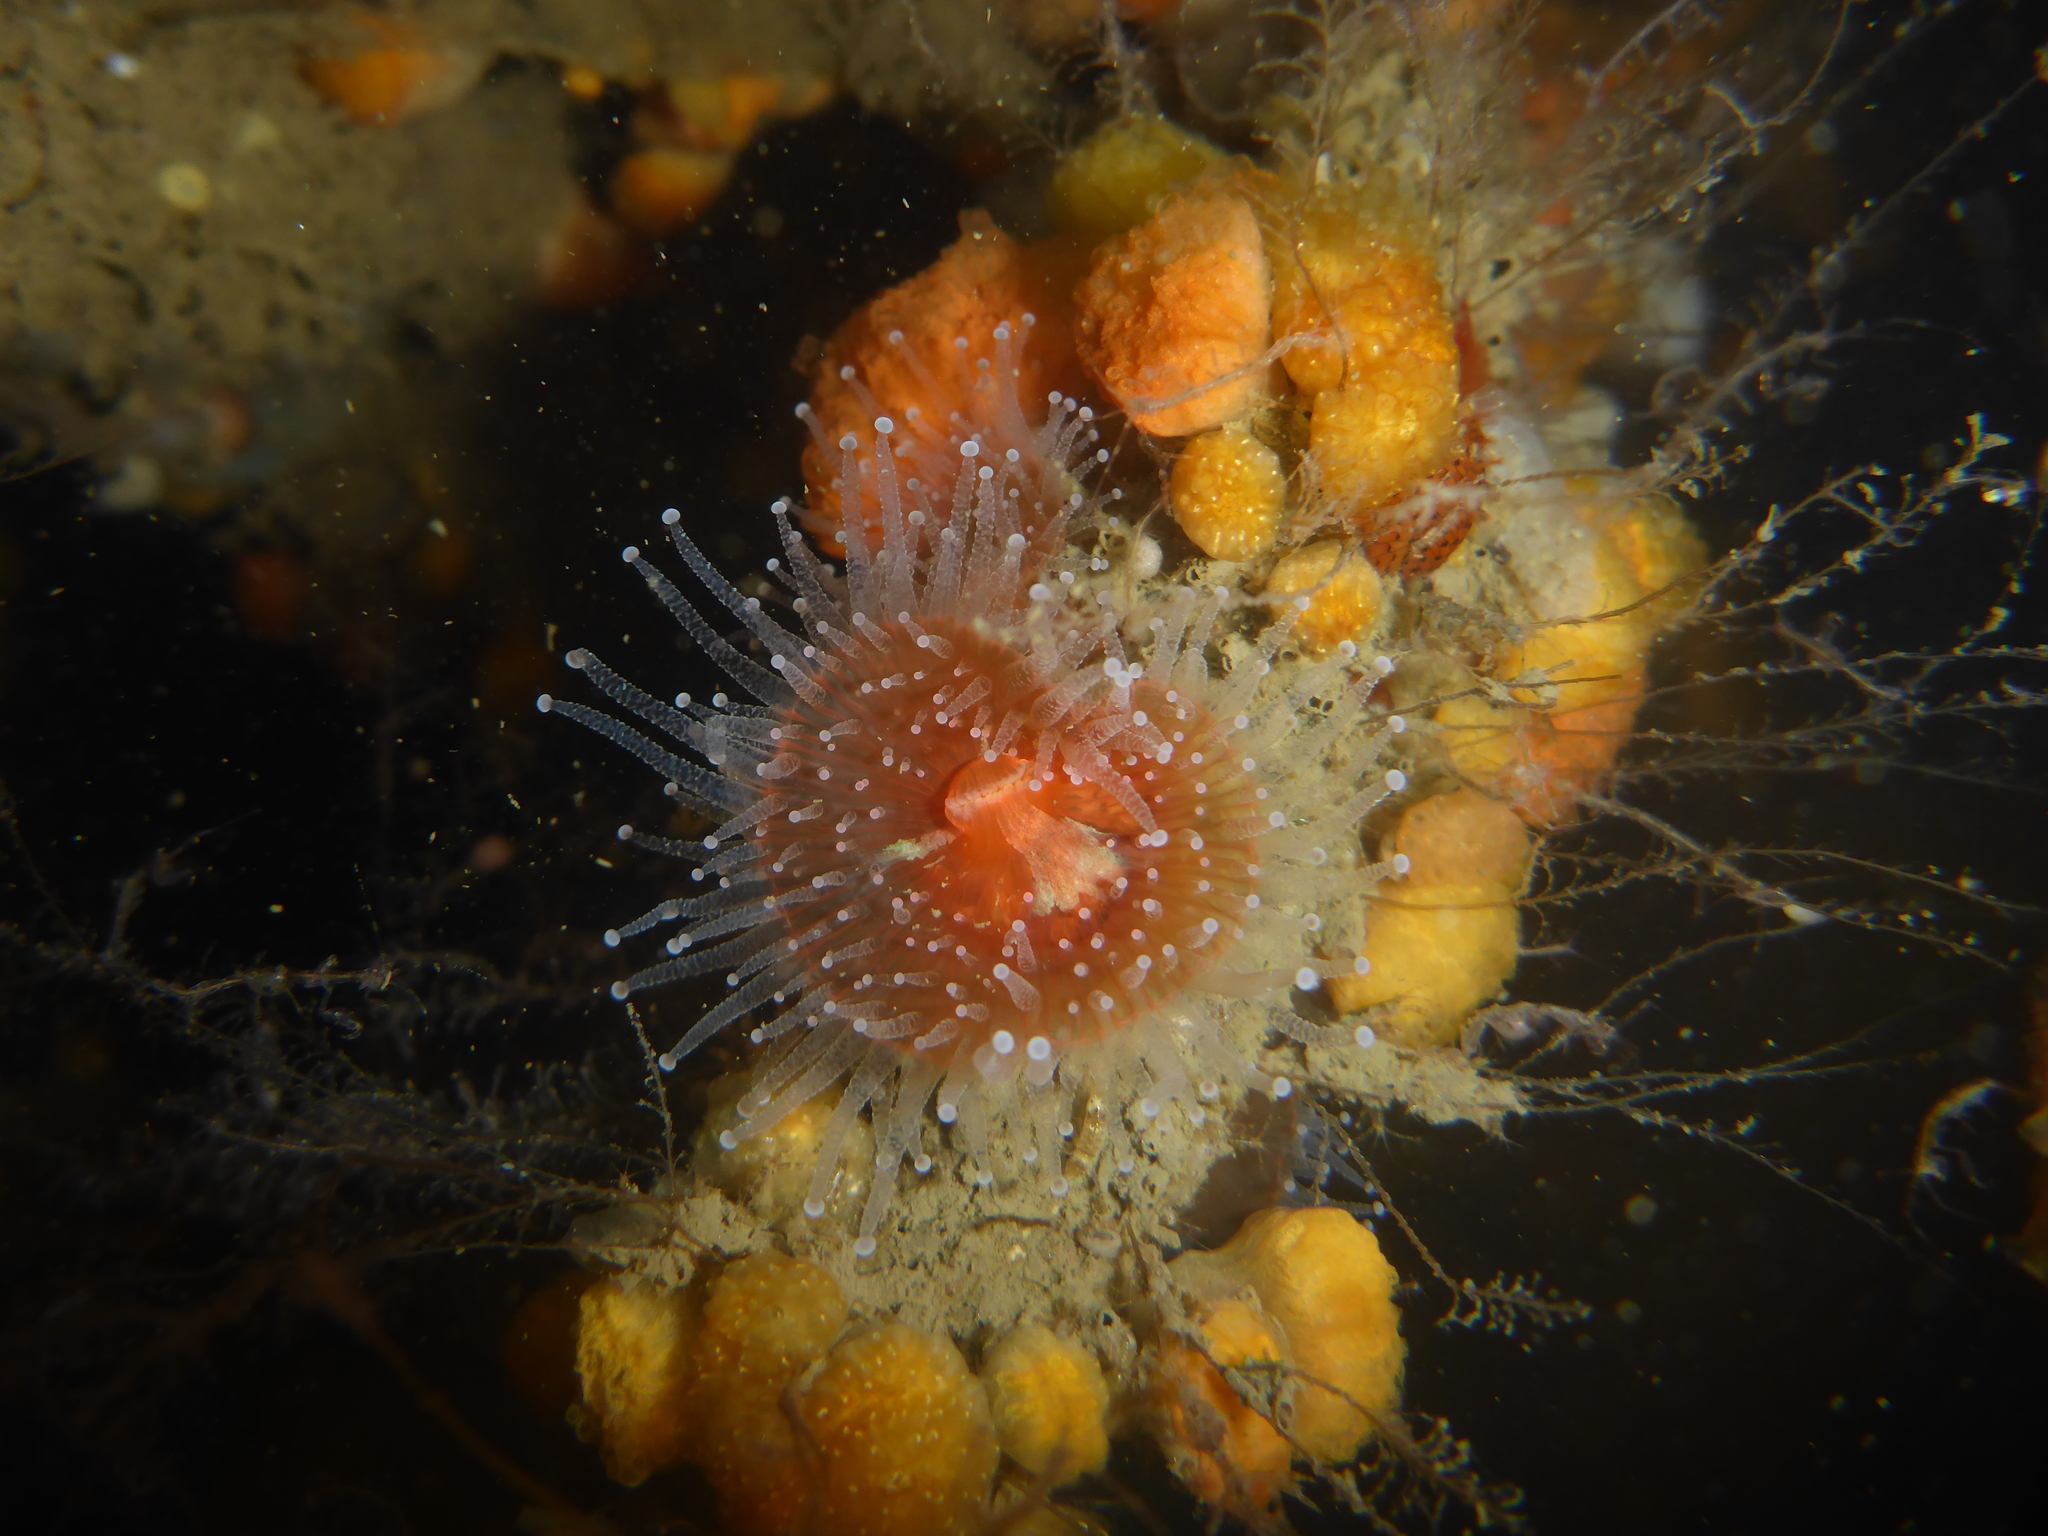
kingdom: Animalia
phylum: Cnidaria
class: Anthozoa
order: Corallimorpharia
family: Corallimorphidae
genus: Corynactis
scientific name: Corynactis californica
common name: Strawberry corallimorpharian
